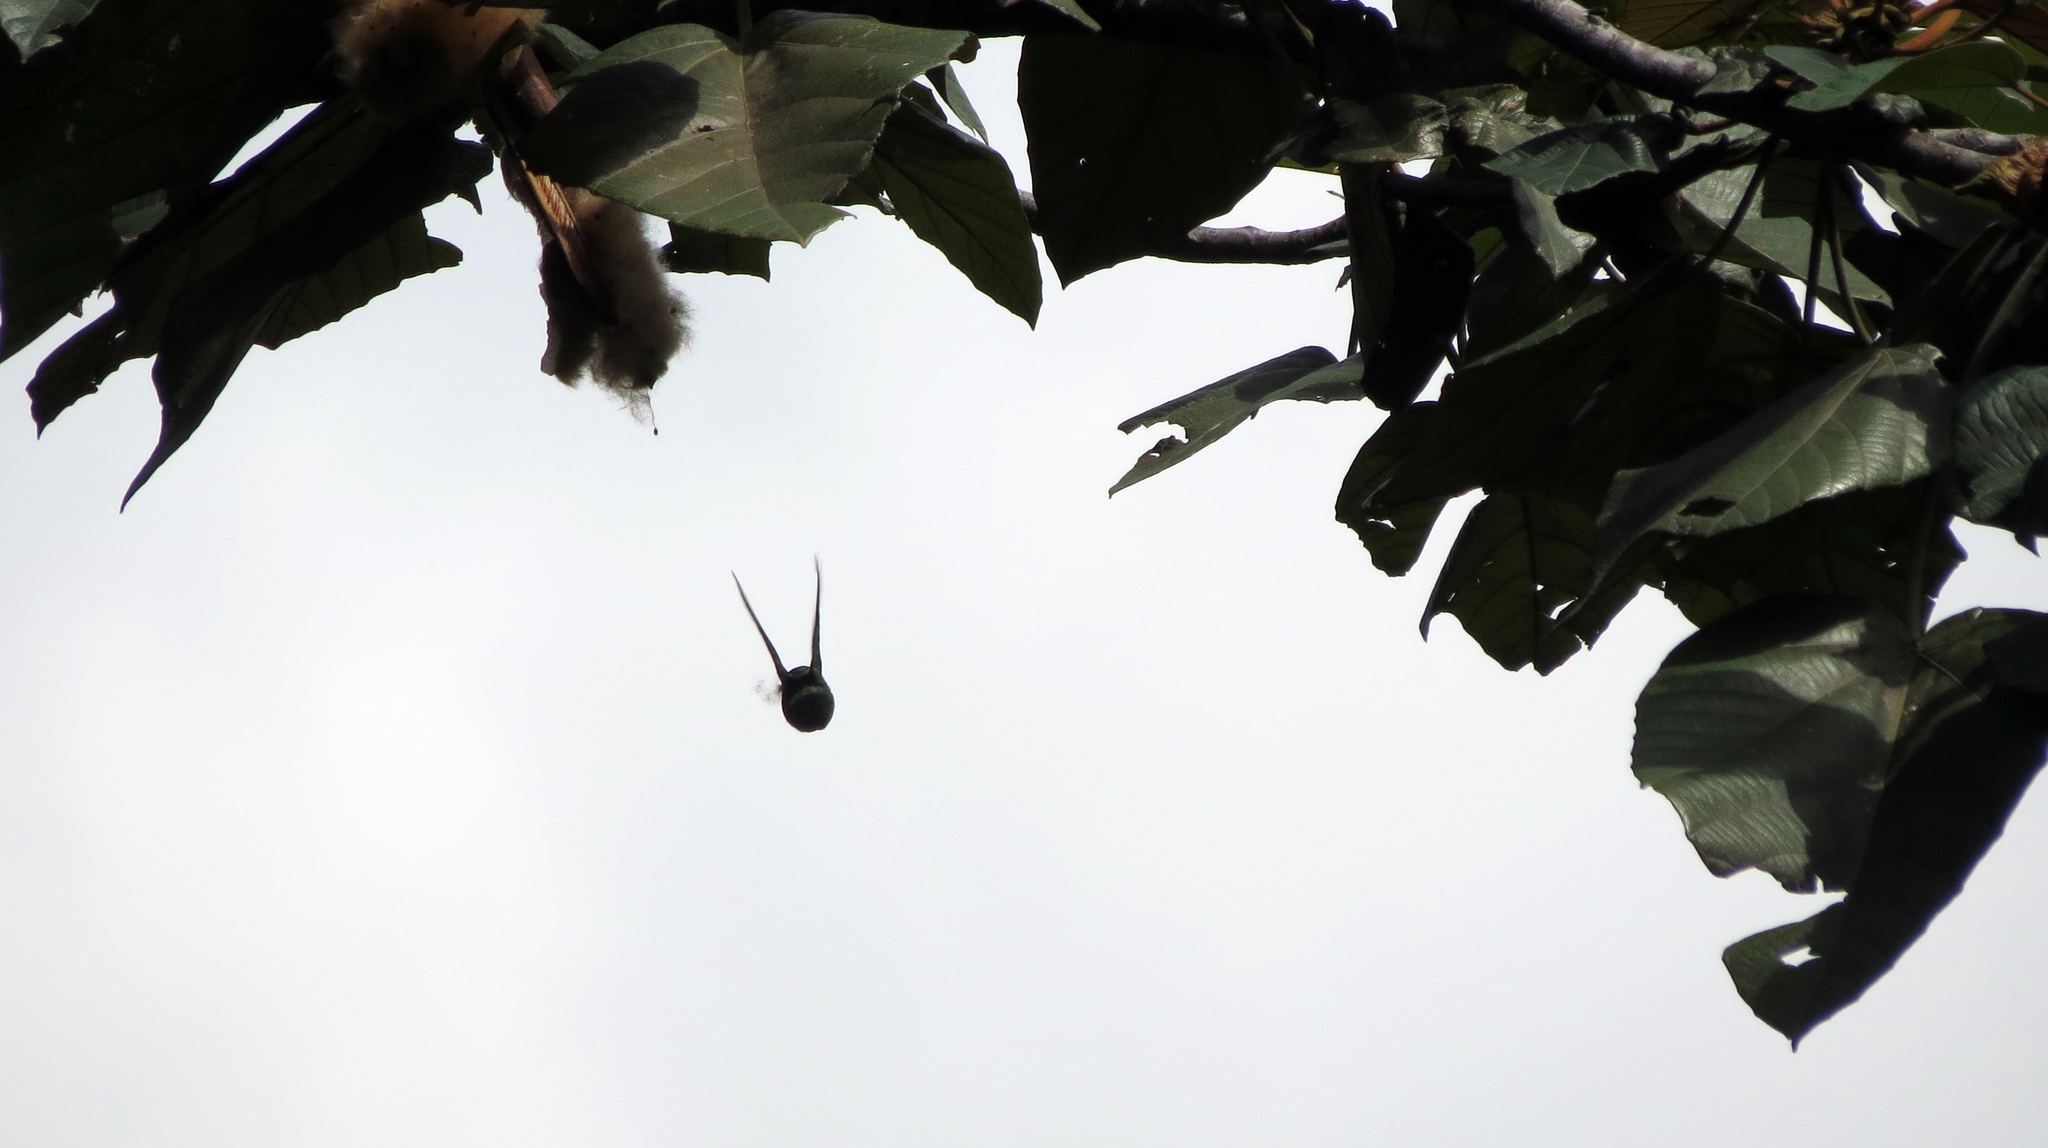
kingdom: Animalia
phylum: Chordata
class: Aves
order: Apodiformes
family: Trochilidae
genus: Anthracothorax
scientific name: Anthracothorax nigricollis
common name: Black-throated mango
